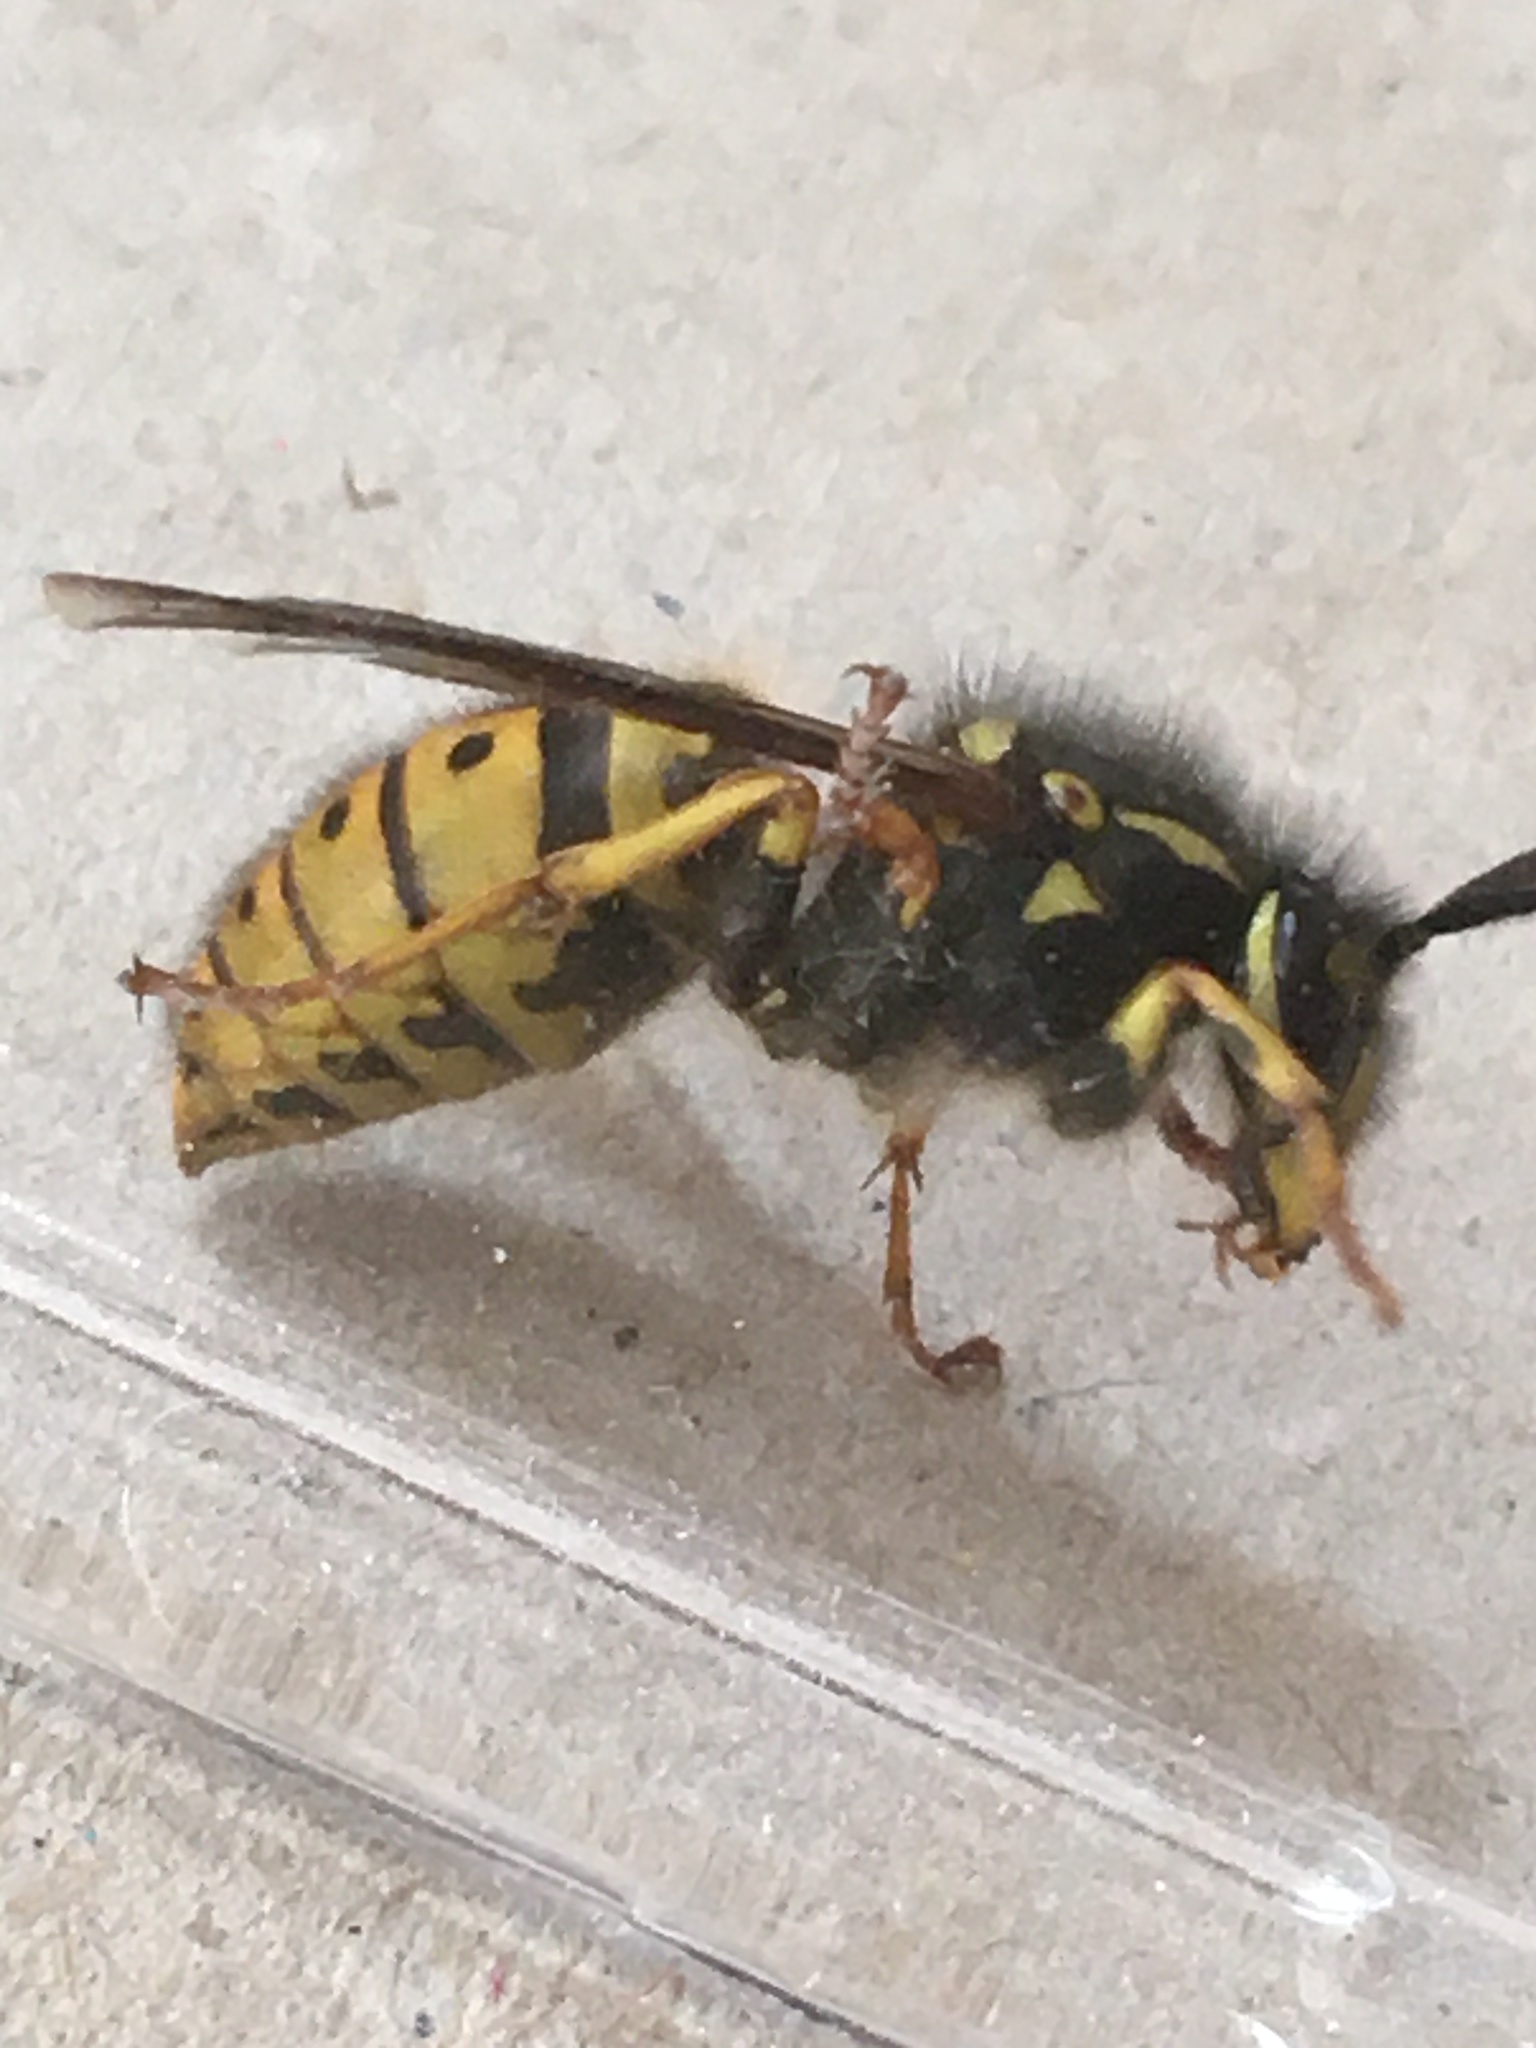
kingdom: Animalia
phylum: Arthropoda
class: Insecta
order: Hymenoptera
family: Vespidae
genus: Vespula
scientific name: Vespula germanica
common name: German wasp
